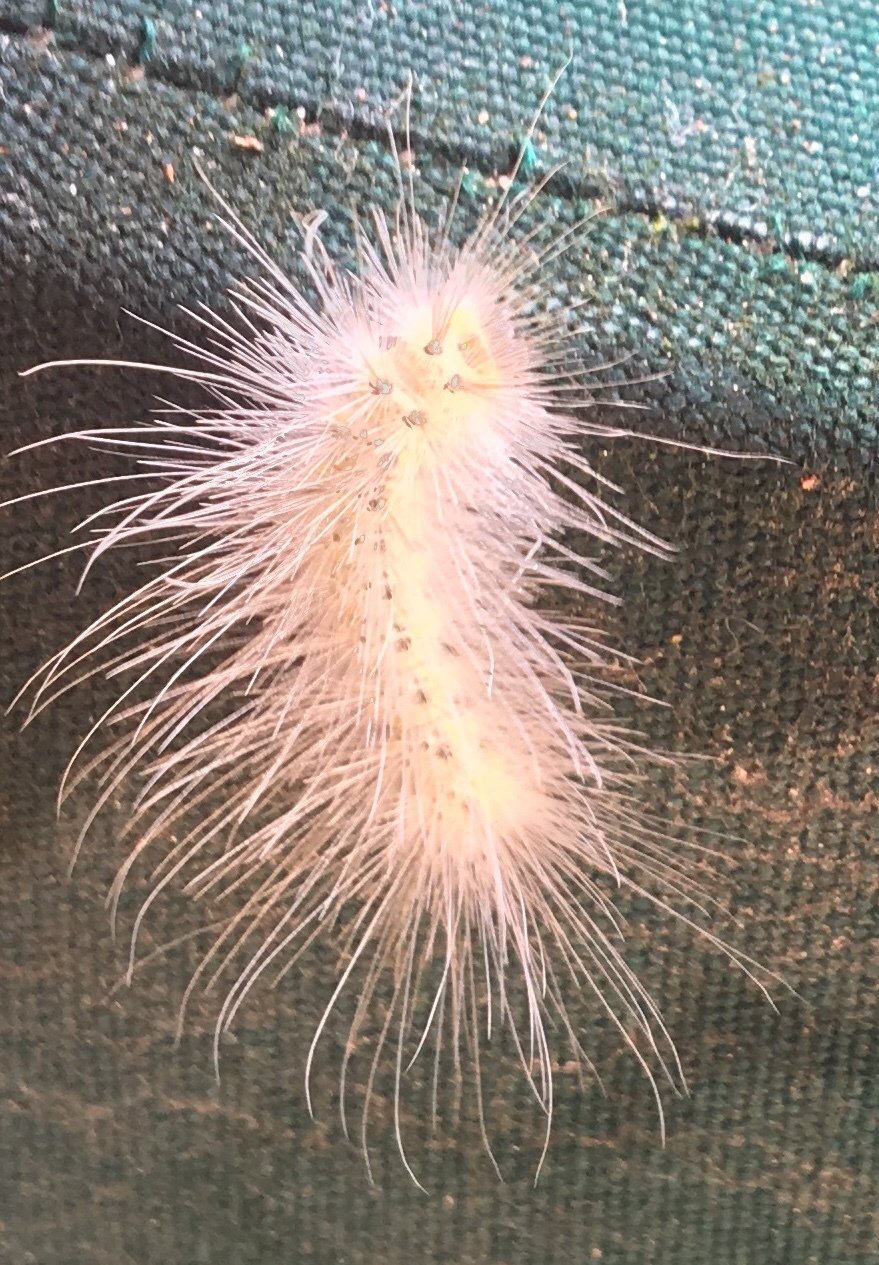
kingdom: Animalia
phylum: Arthropoda
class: Insecta
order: Lepidoptera
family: Erebidae
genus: Hyphantria
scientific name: Hyphantria cunea
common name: American white moth
